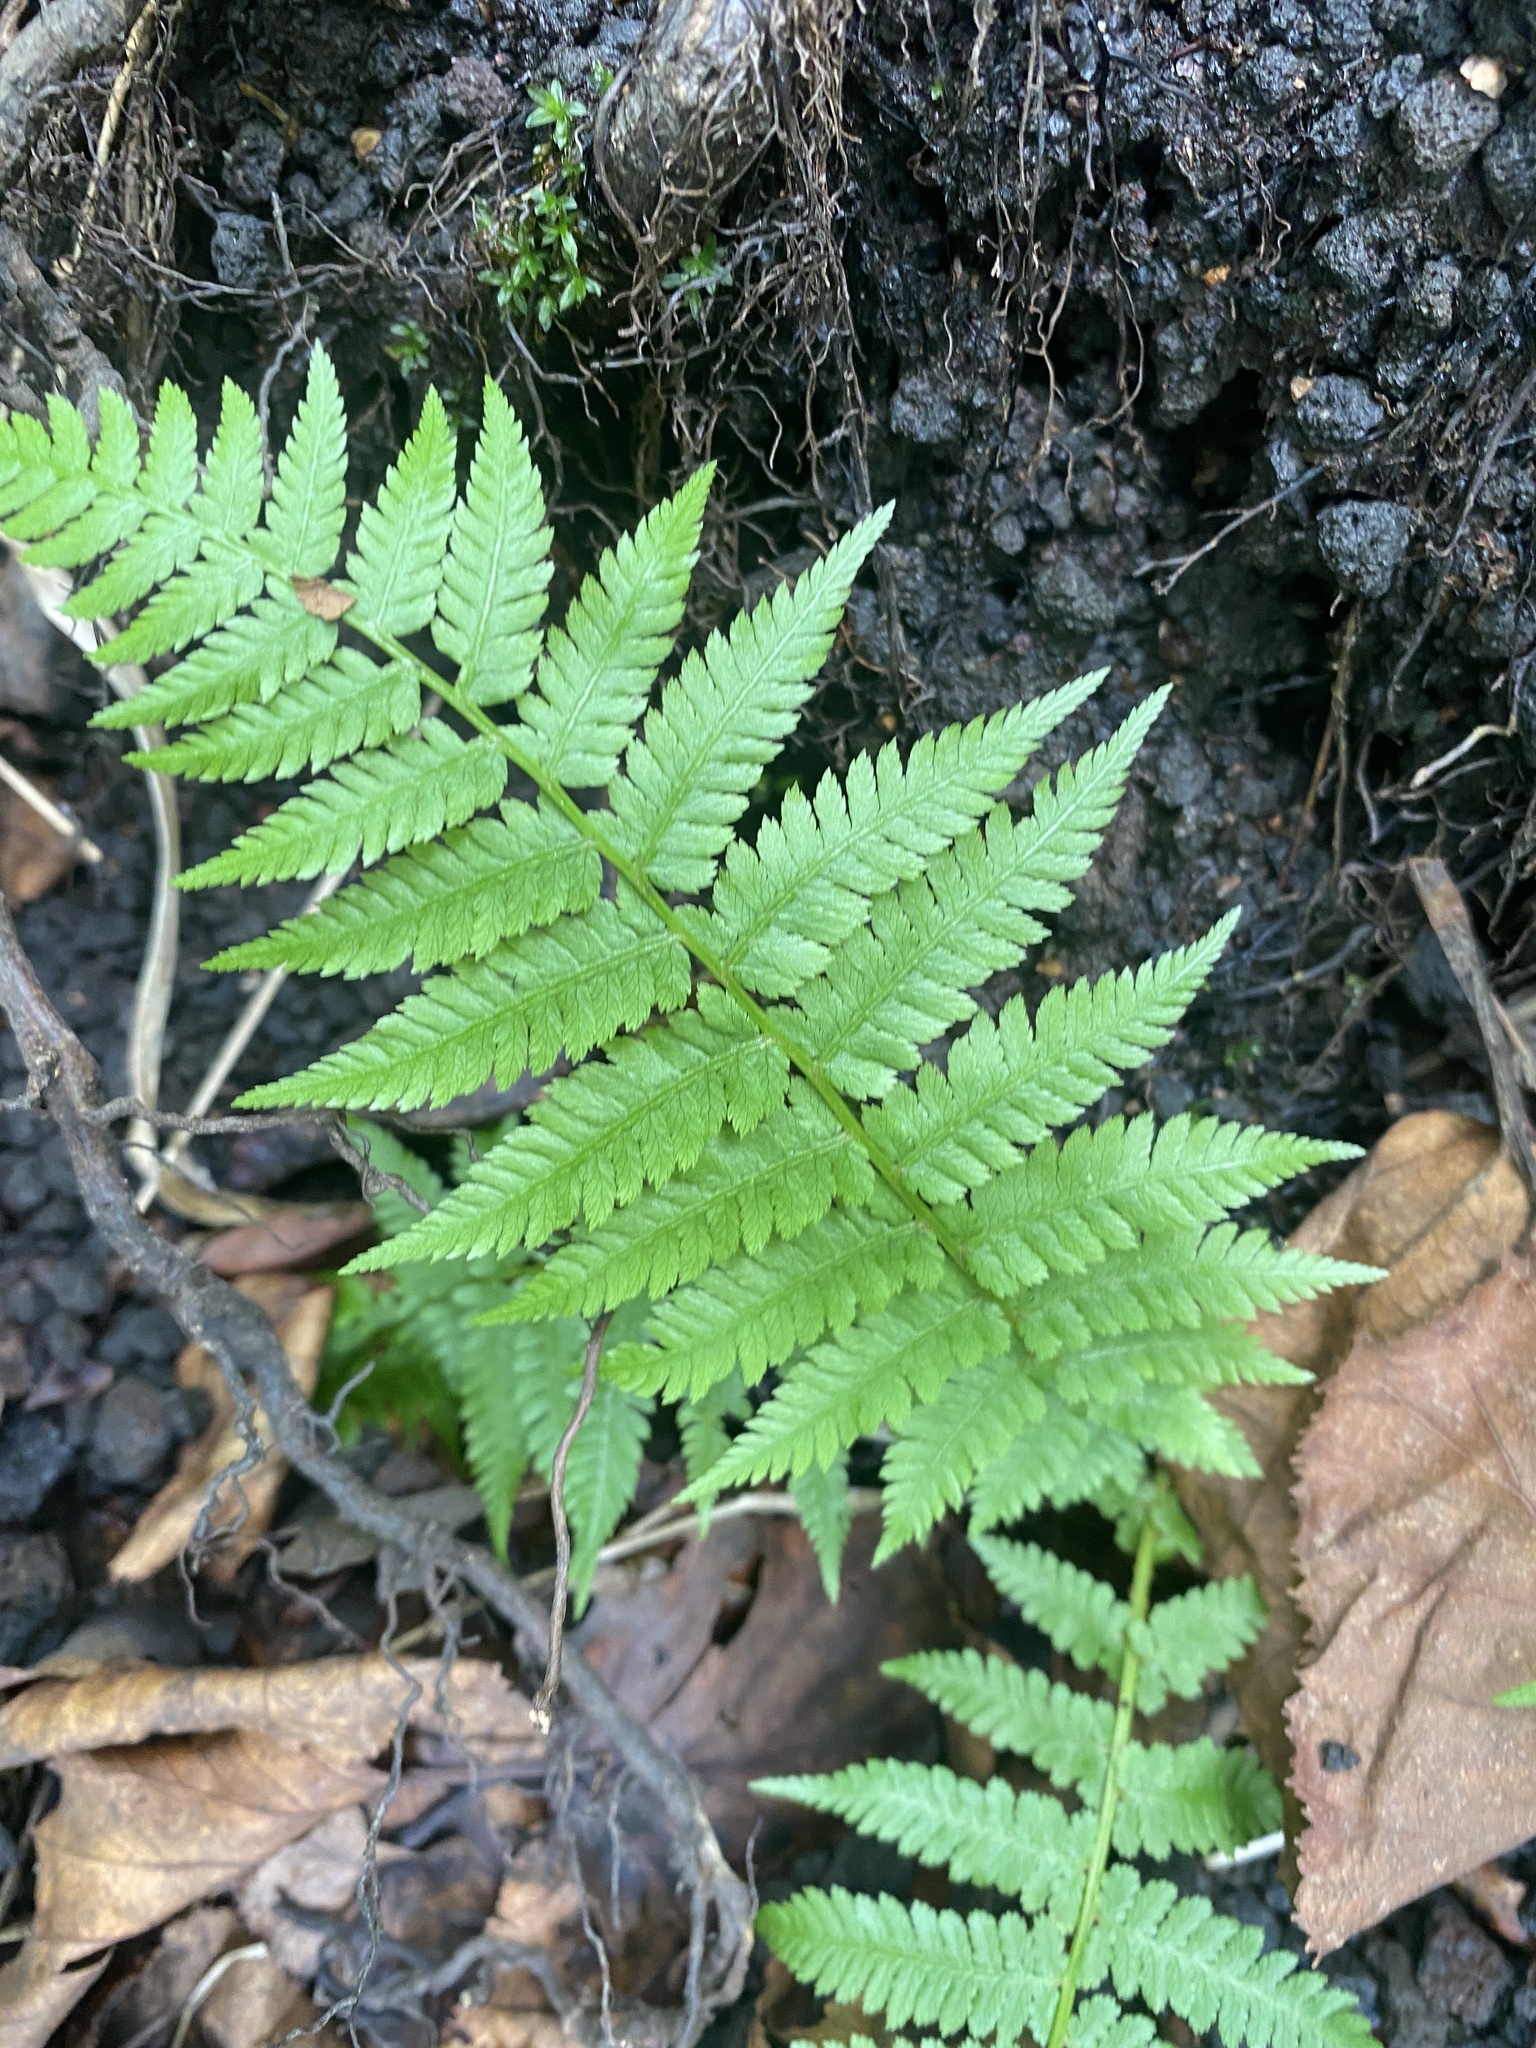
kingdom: Plantae
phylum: Tracheophyta
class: Polypodiopsida
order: Polypodiales
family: Athyriaceae
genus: Athyrium
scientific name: Athyrium filix-femina
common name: Lady fern
